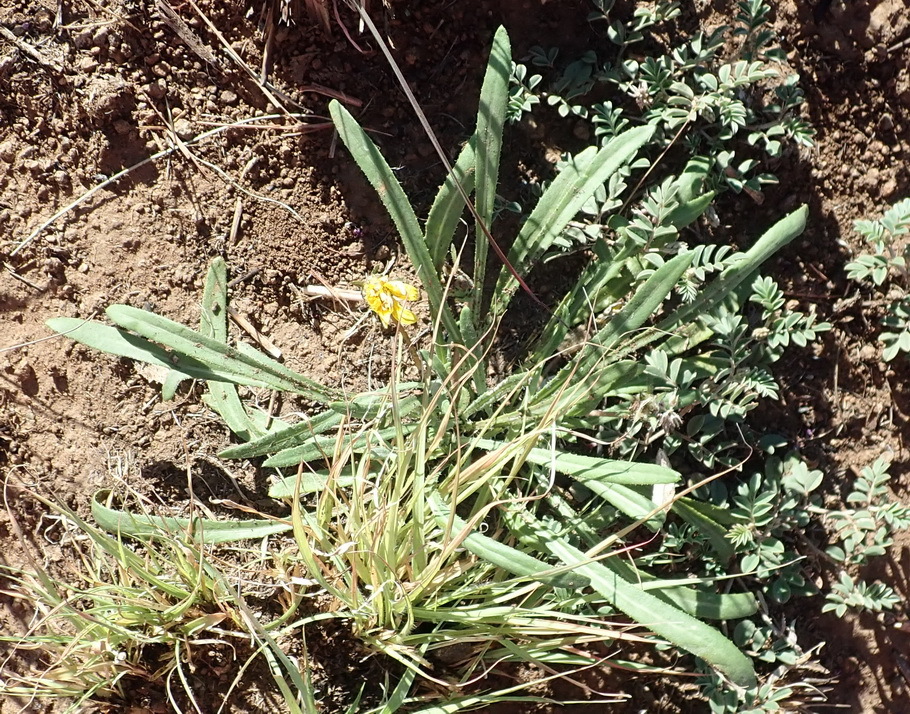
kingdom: Plantae
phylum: Tracheophyta
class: Magnoliopsida
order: Asterales
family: Asteraceae
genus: Gazania
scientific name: Gazania krebsiana
